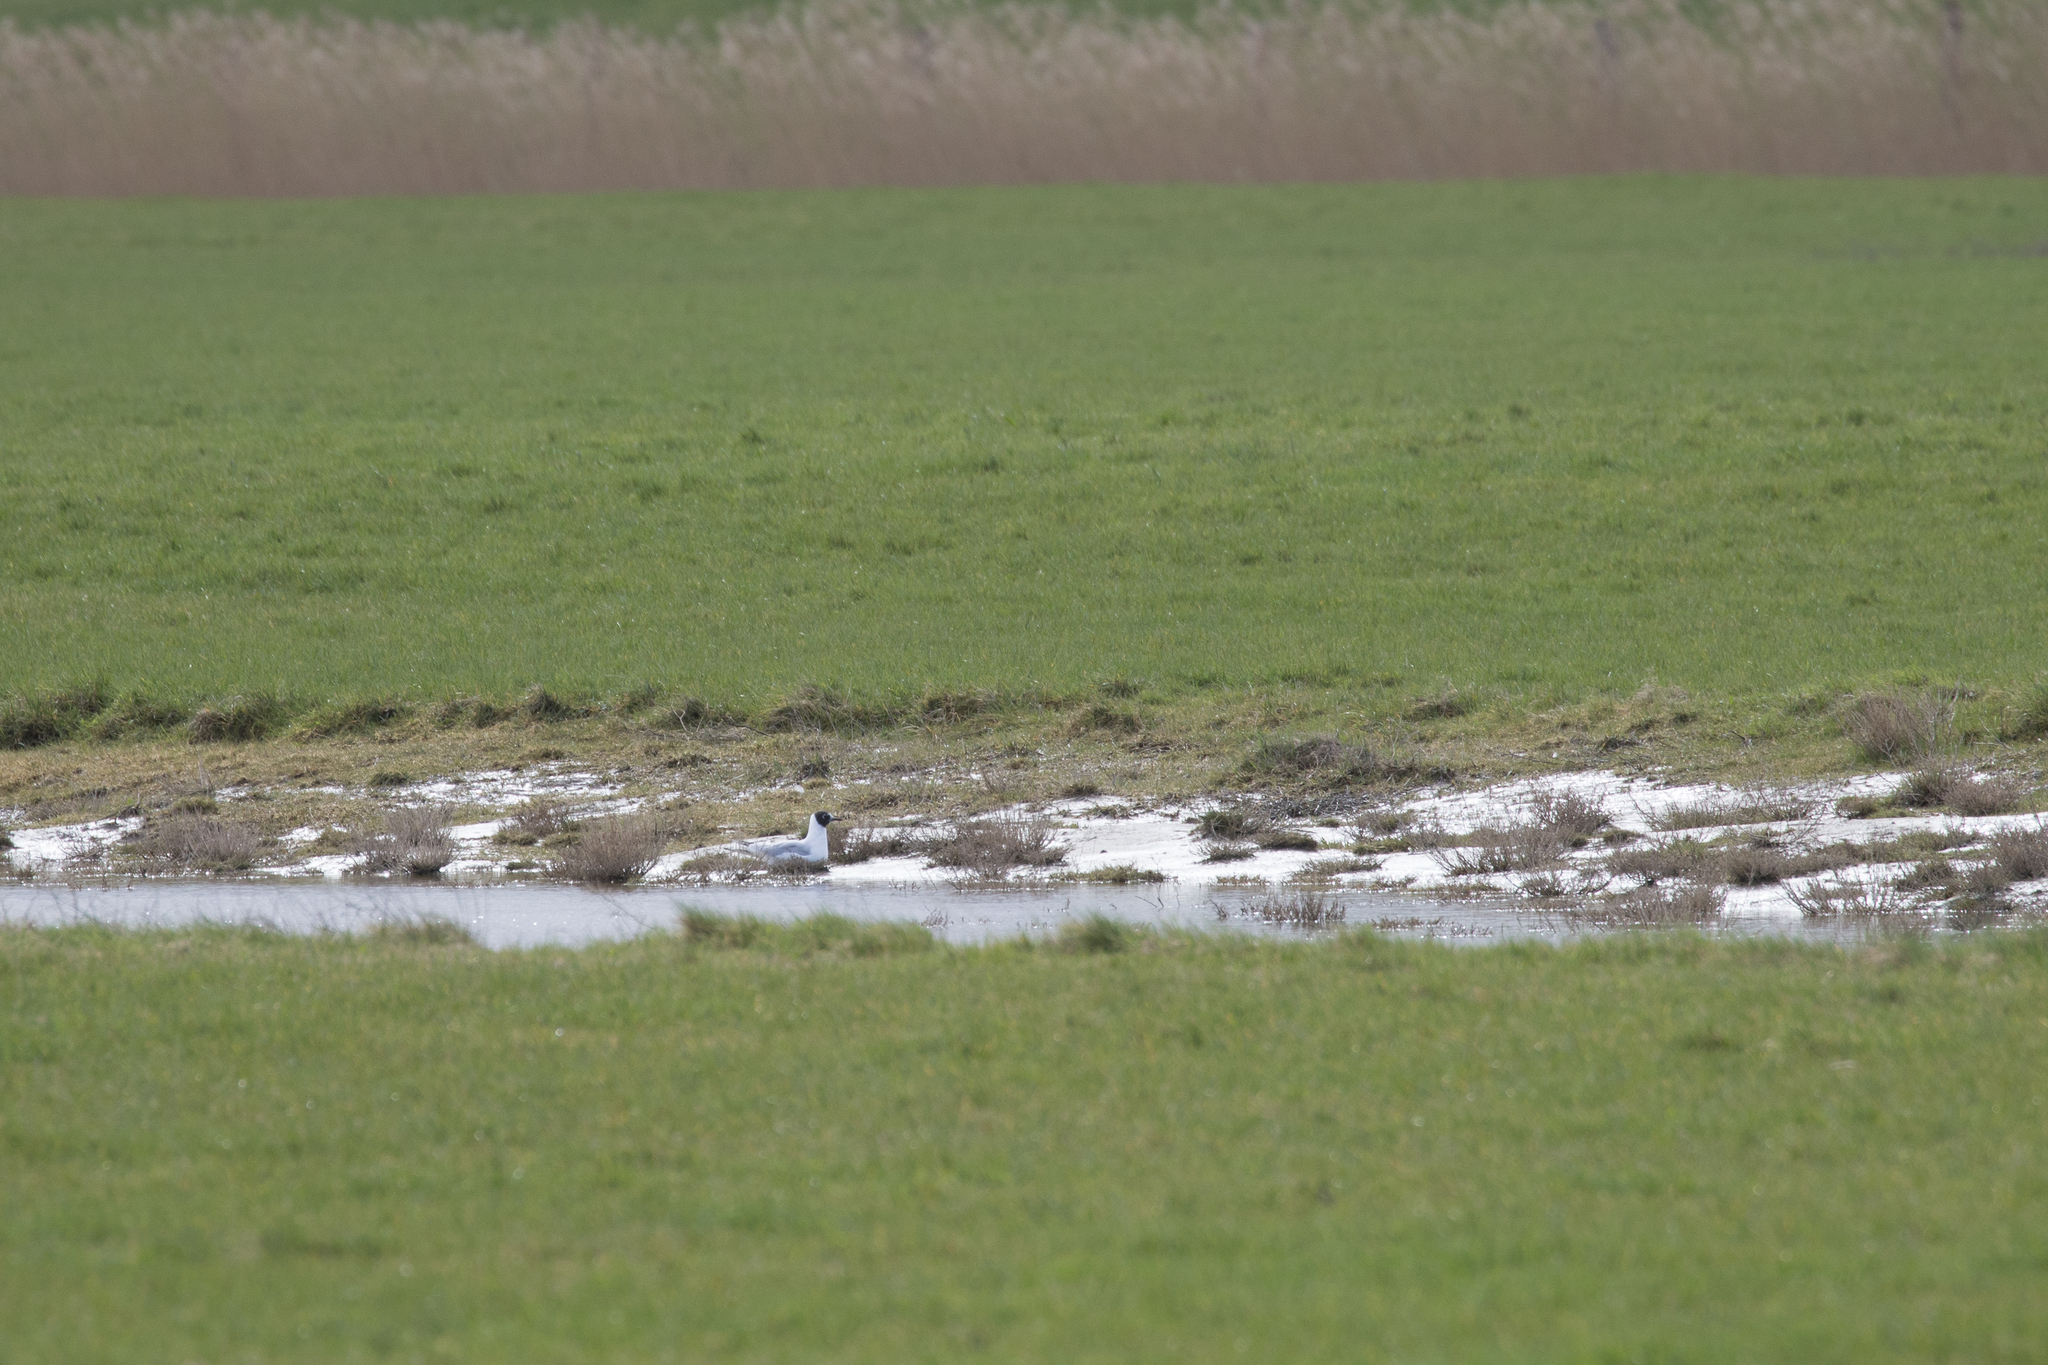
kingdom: Animalia
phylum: Chordata
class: Aves
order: Charadriiformes
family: Laridae
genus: Chroicocephalus
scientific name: Chroicocephalus ridibundus
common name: Black-headed gull
